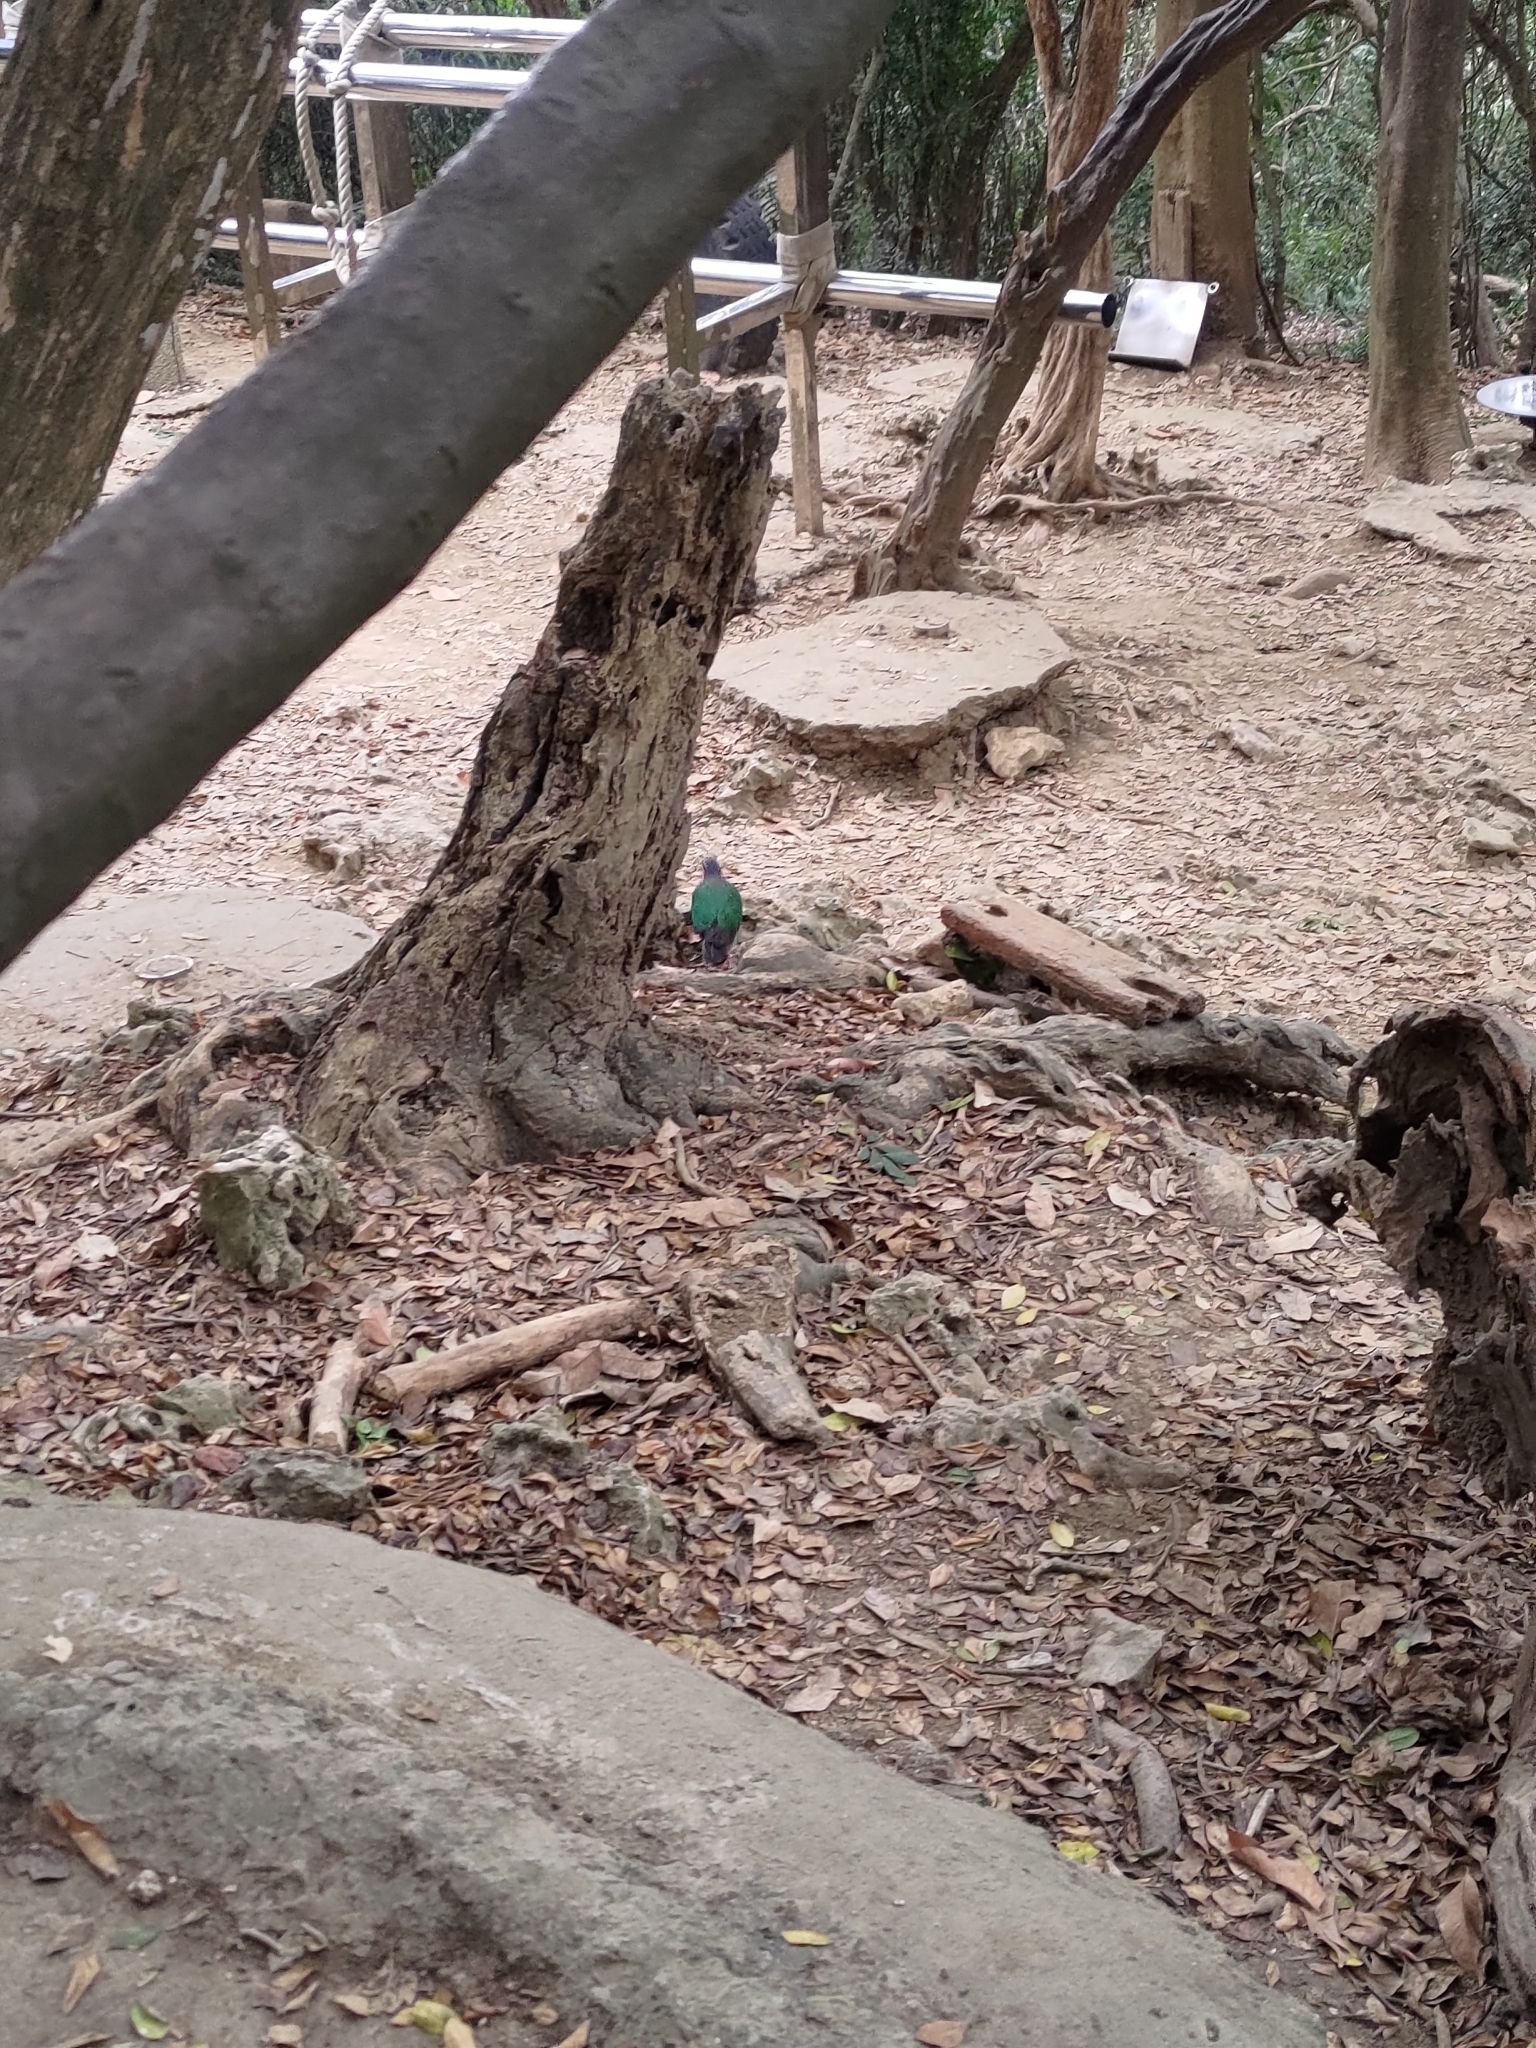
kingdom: Animalia
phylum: Chordata
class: Aves
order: Columbiformes
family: Columbidae
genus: Chalcophaps
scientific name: Chalcophaps indica
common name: Common emerald dove
